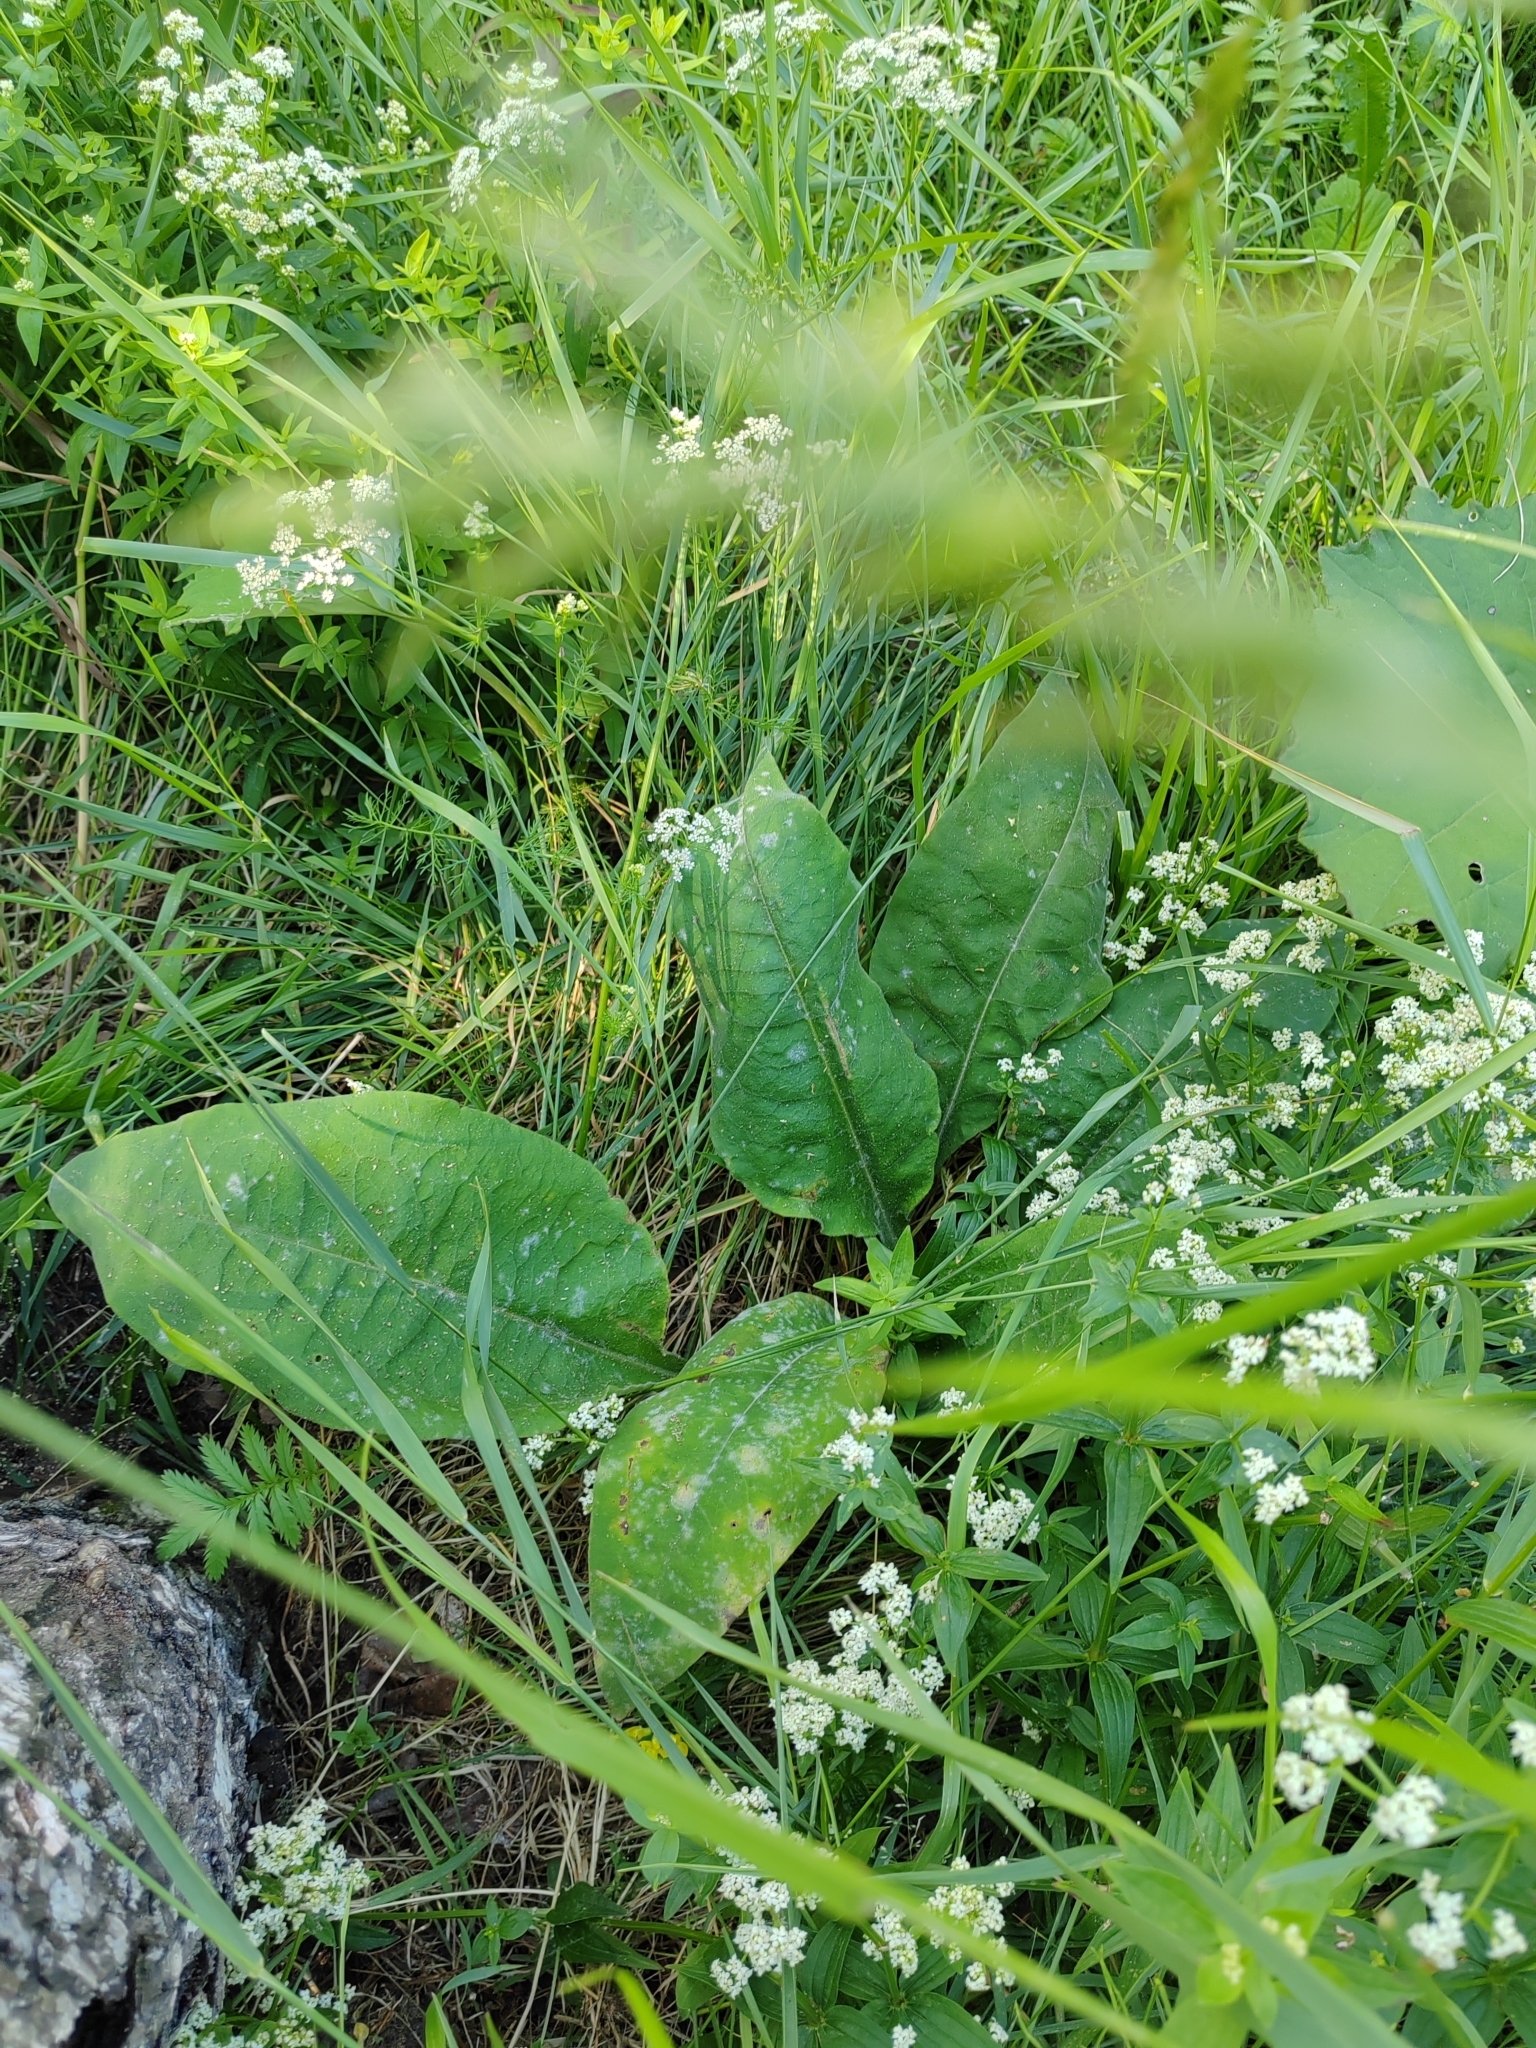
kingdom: Plantae
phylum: Tracheophyta
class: Magnoliopsida
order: Boraginales
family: Boraginaceae
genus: Pulmonaria
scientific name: Pulmonaria mollis
